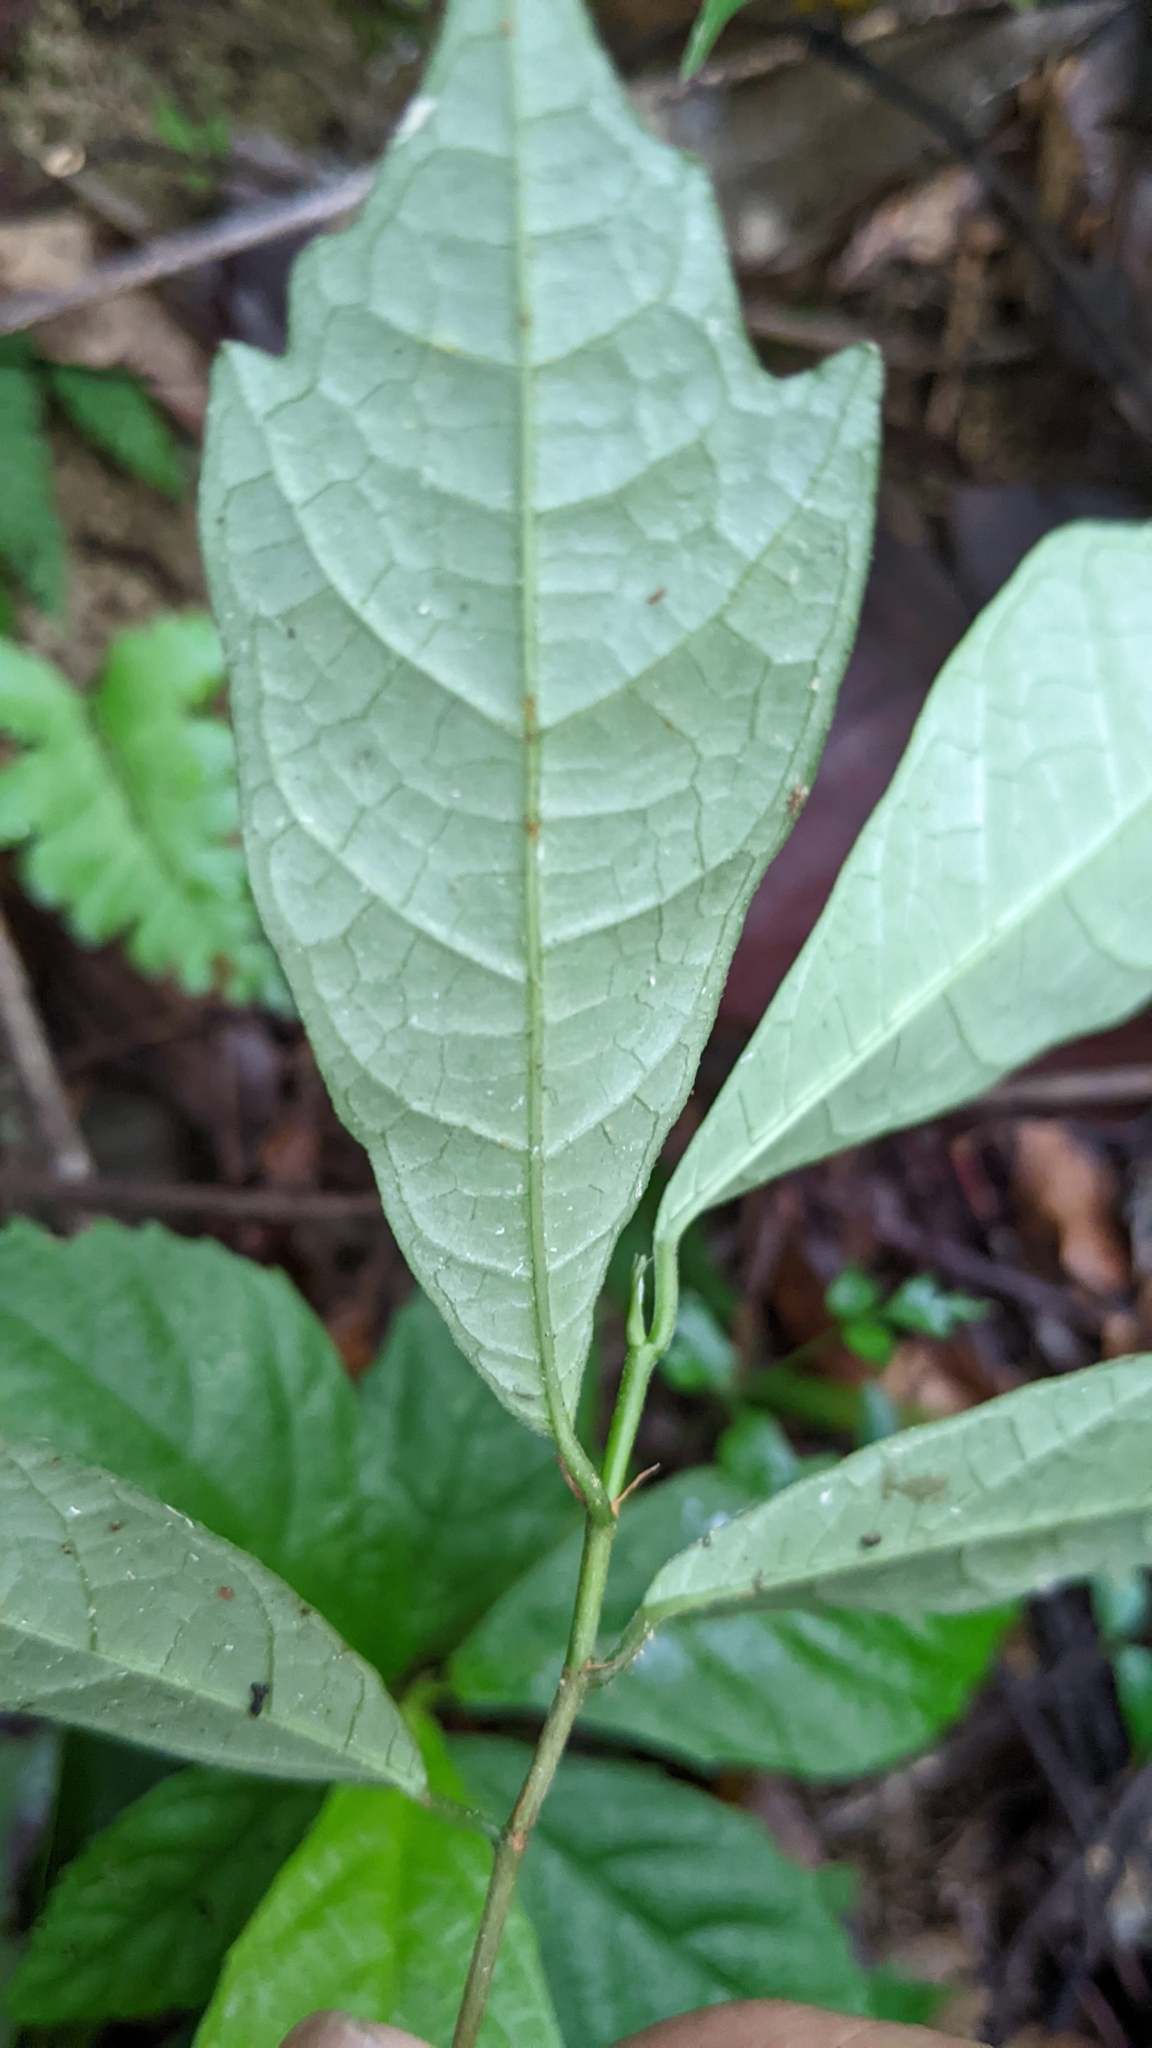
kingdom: Plantae
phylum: Tracheophyta
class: Magnoliopsida
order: Rosales
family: Moraceae
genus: Ficus
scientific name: Ficus formosana
